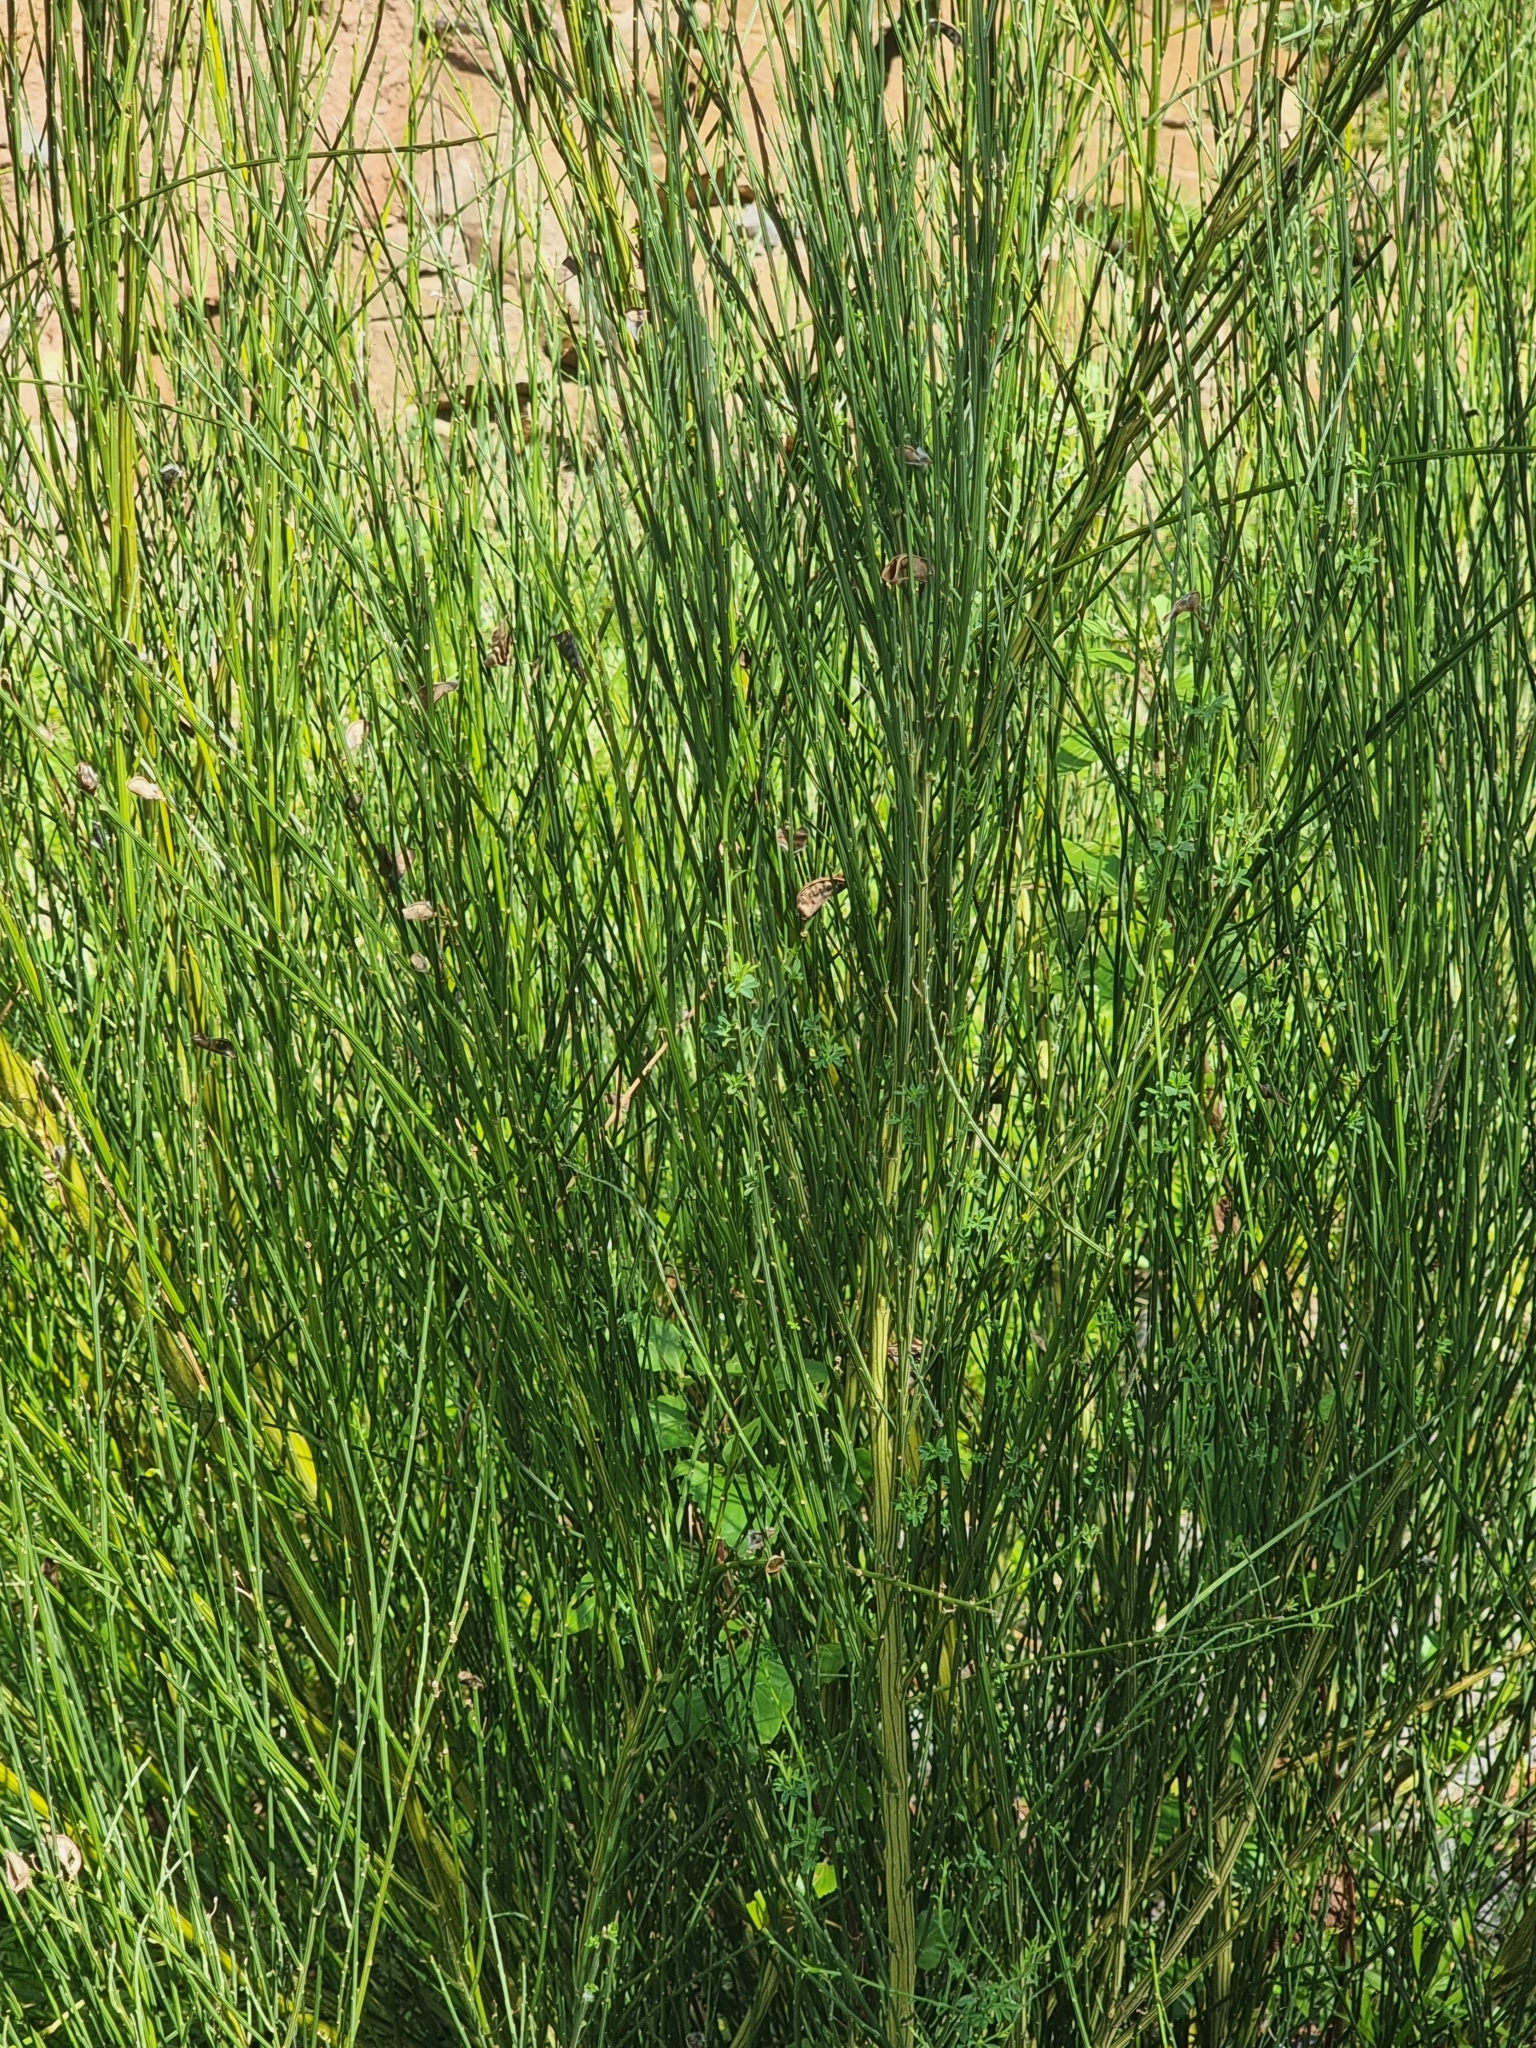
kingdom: Plantae
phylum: Tracheophyta
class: Magnoliopsida
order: Fabales
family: Fabaceae
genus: Cytisus
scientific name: Cytisus scoparius
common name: Scotch broom
